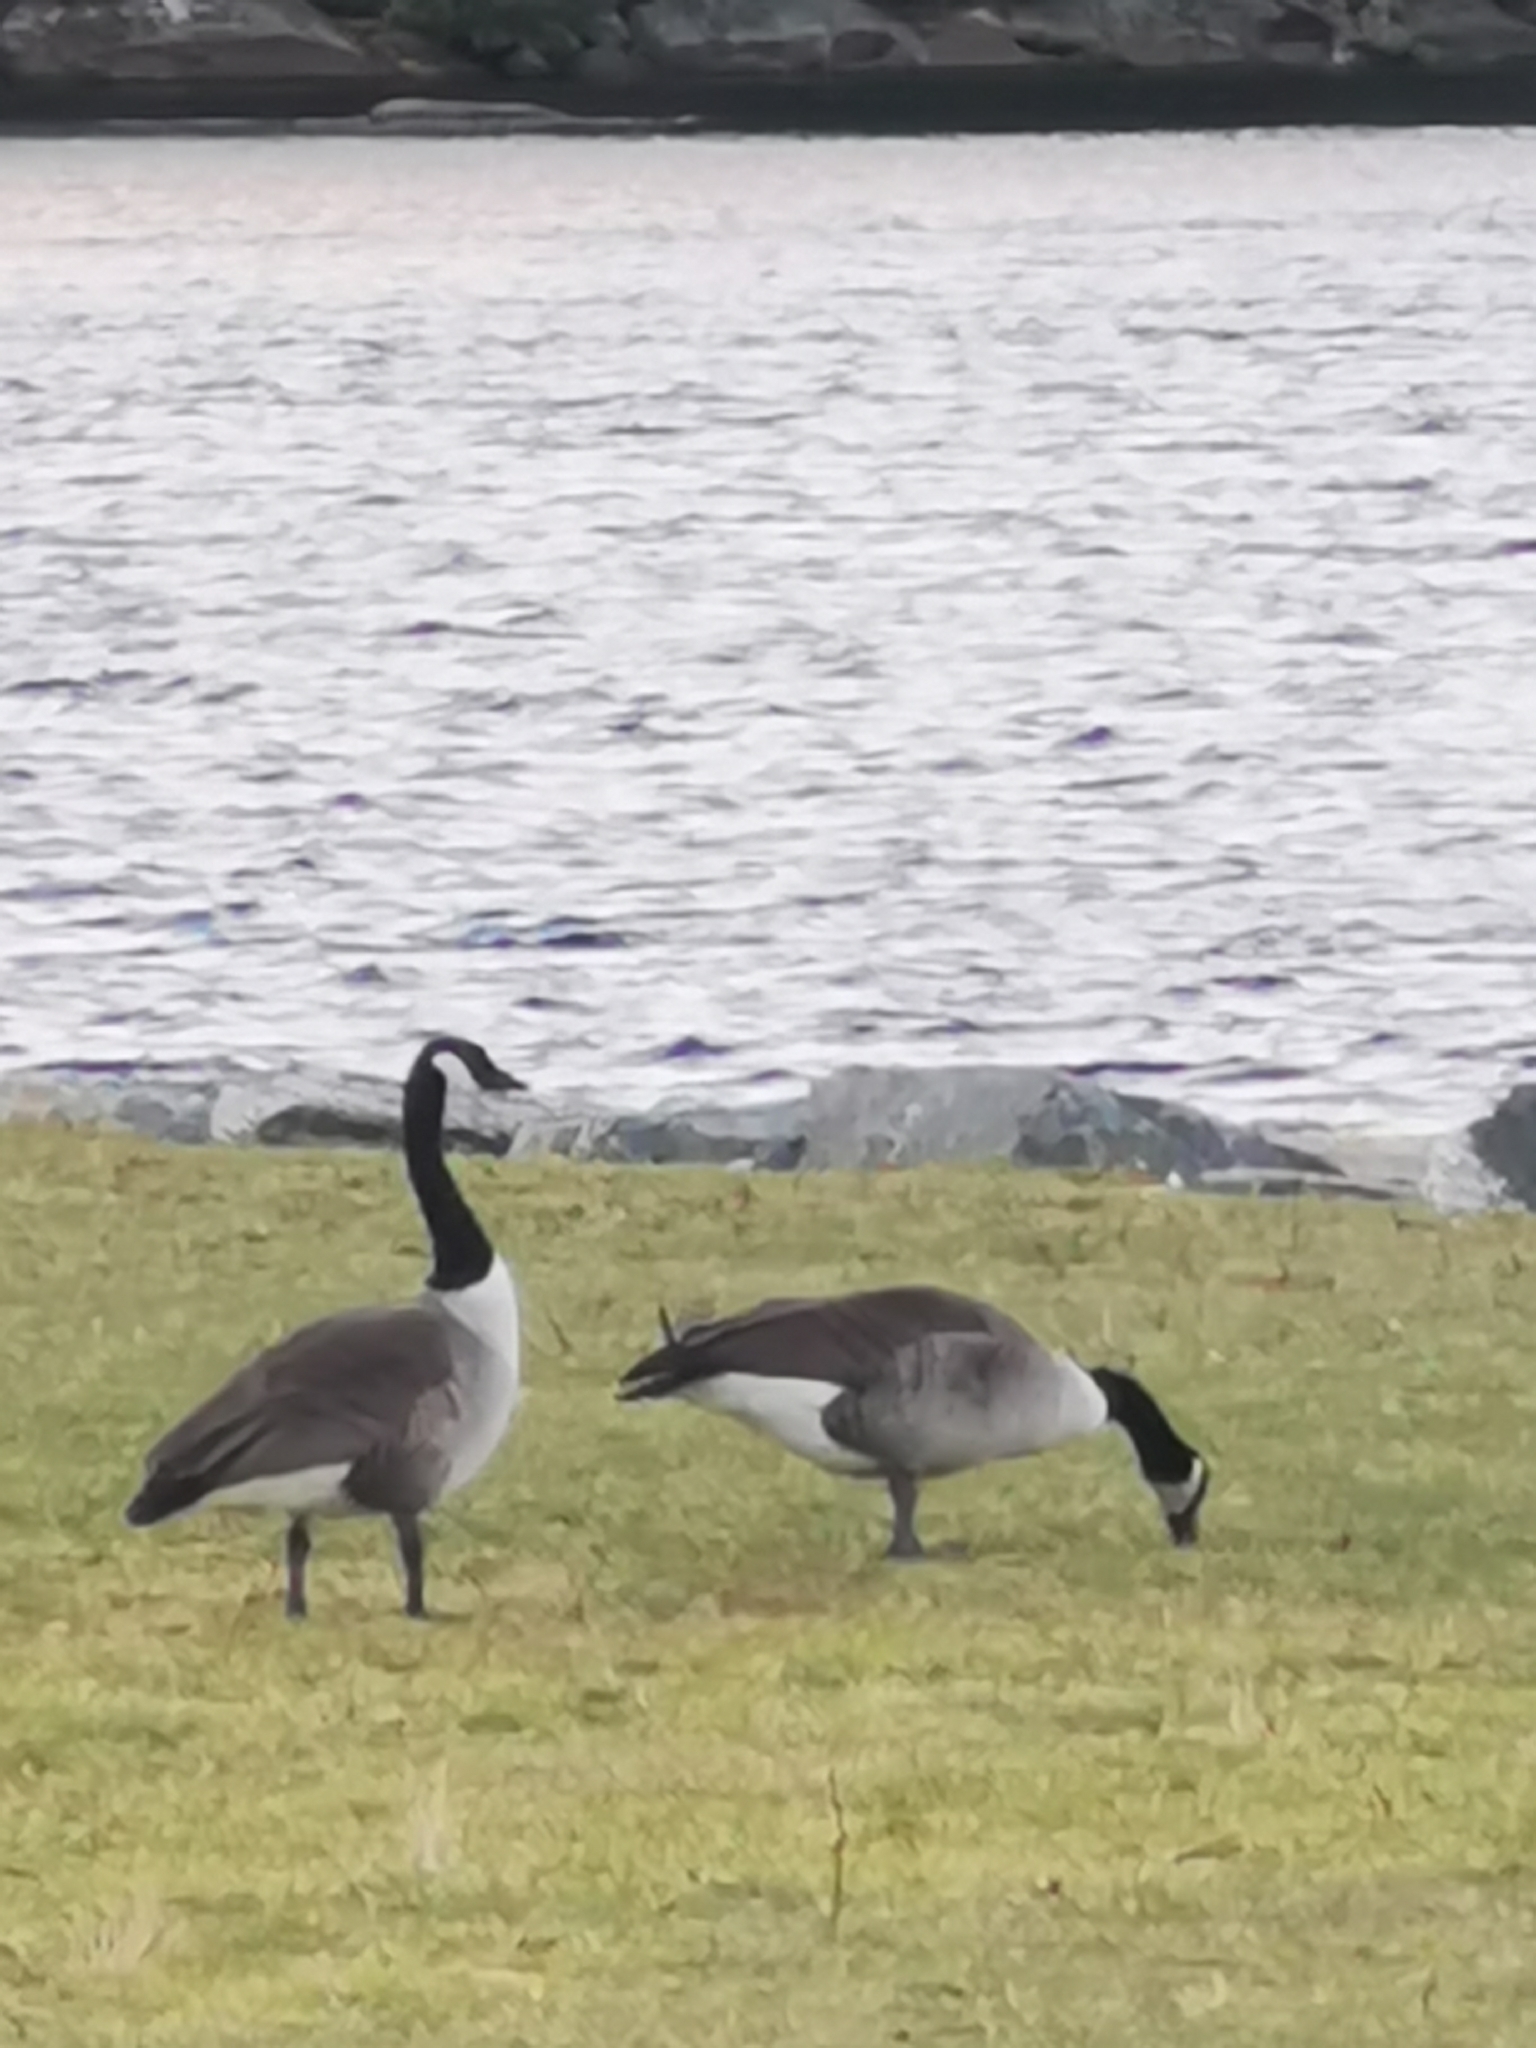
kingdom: Animalia
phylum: Chordata
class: Aves
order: Anseriformes
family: Anatidae
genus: Branta
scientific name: Branta canadensis
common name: Canada goose
